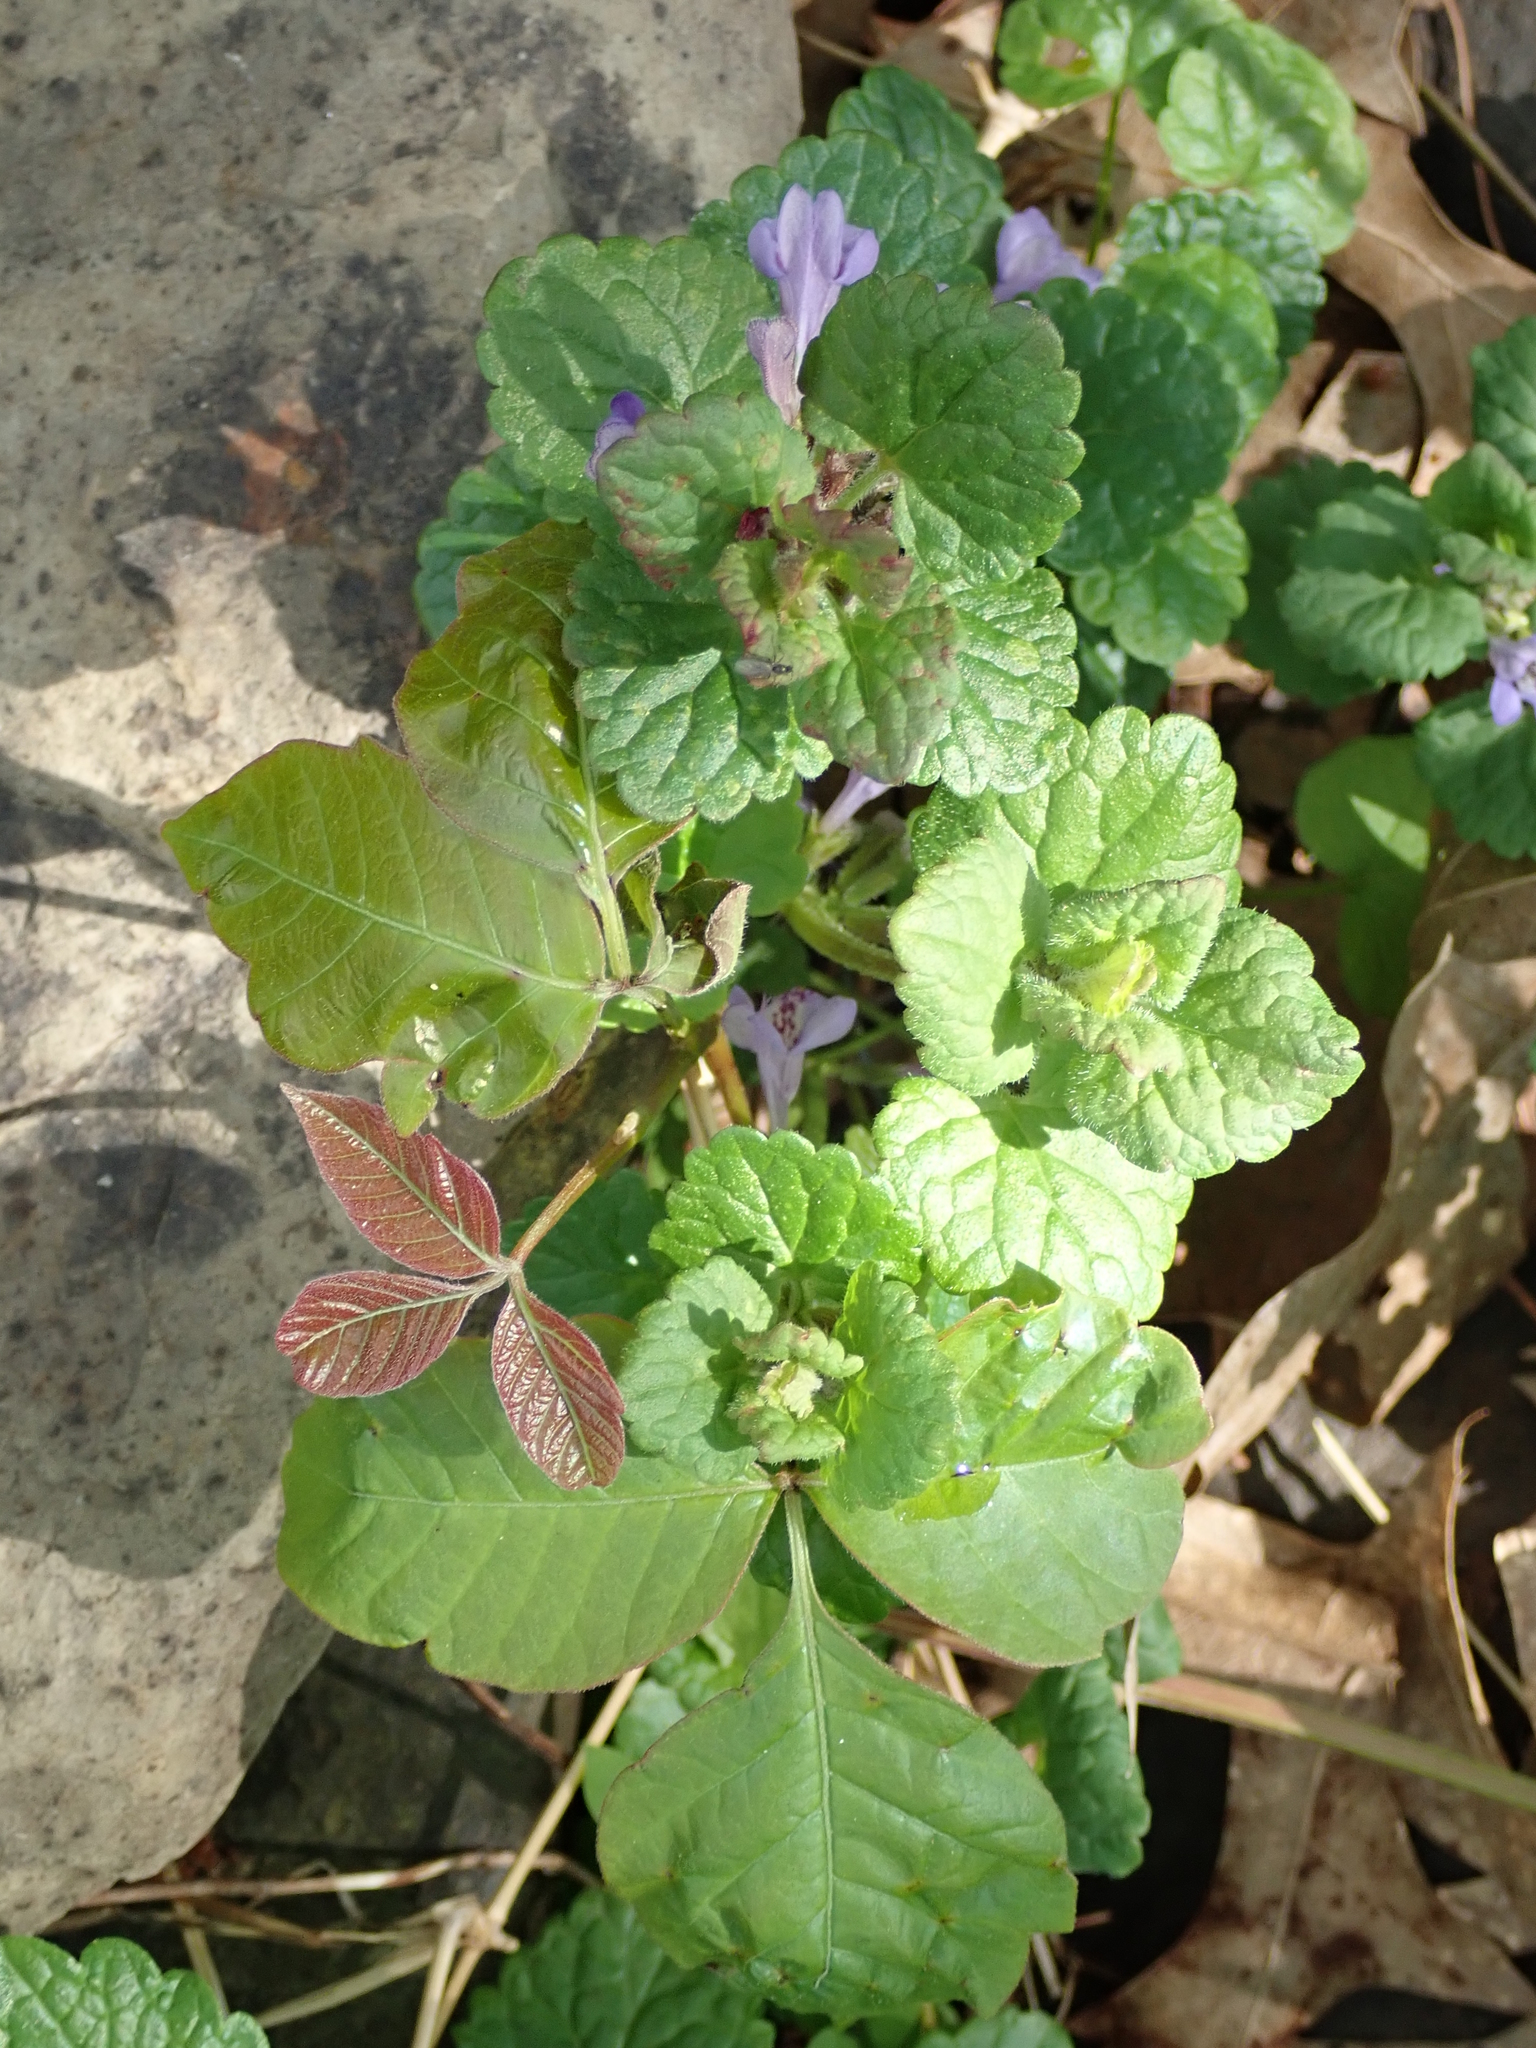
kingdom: Plantae
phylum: Tracheophyta
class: Magnoliopsida
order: Sapindales
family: Anacardiaceae
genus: Toxicodendron
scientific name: Toxicodendron radicans
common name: Poison ivy
